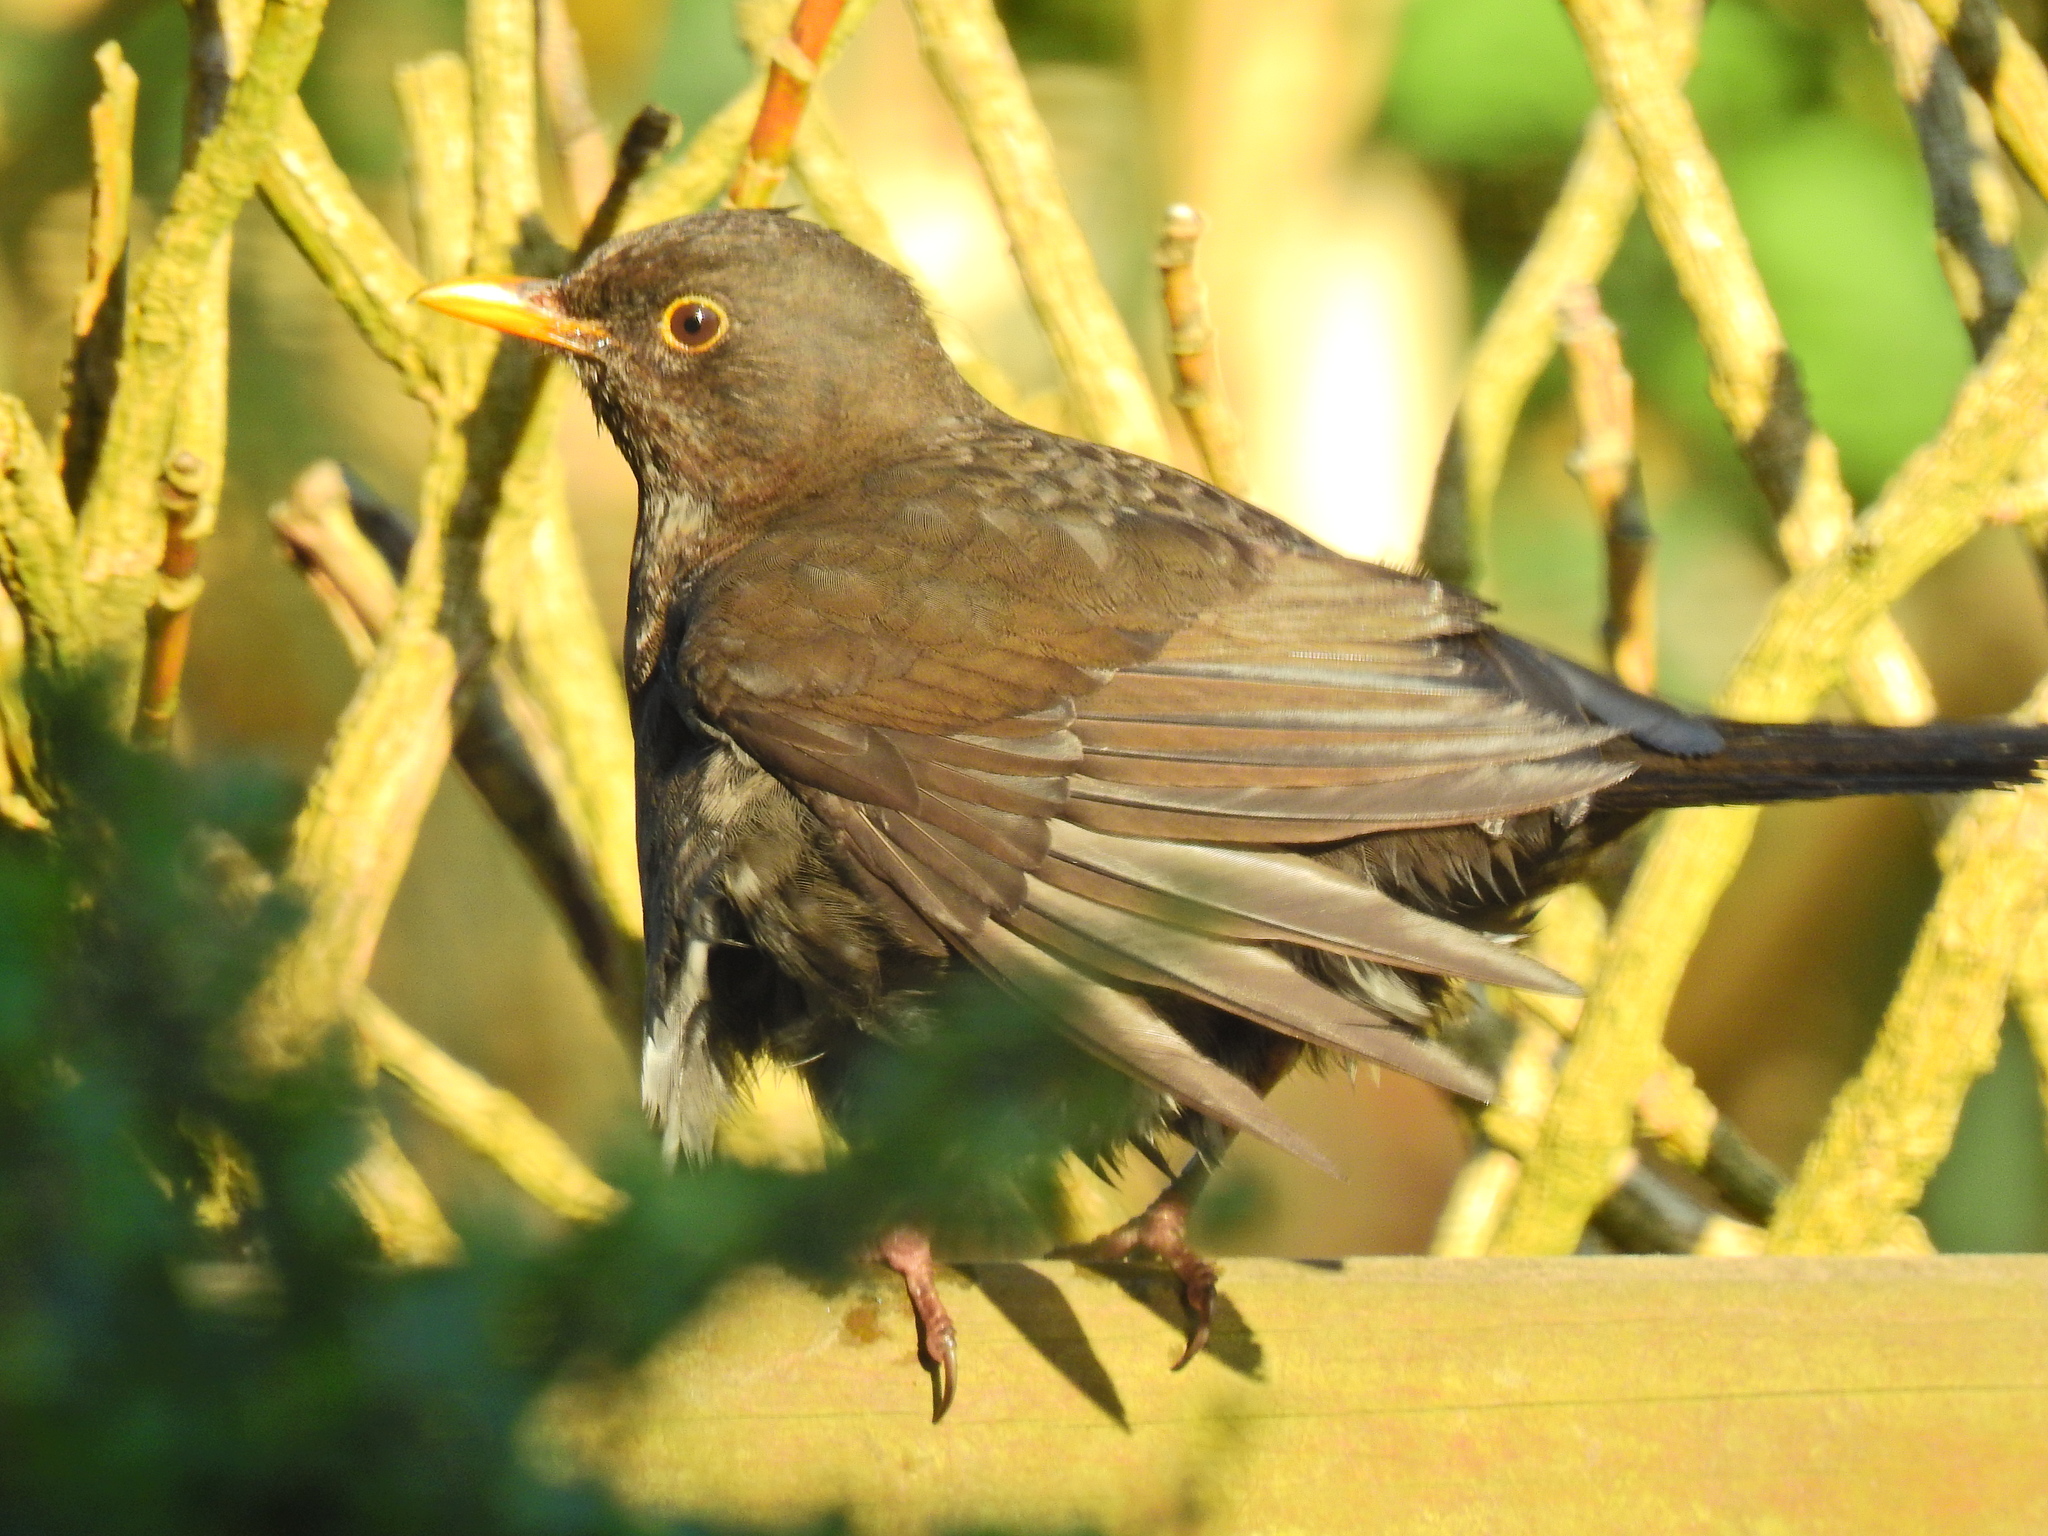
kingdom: Animalia
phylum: Chordata
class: Aves
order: Passeriformes
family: Turdidae
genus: Turdus
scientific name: Turdus merula
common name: Common blackbird
